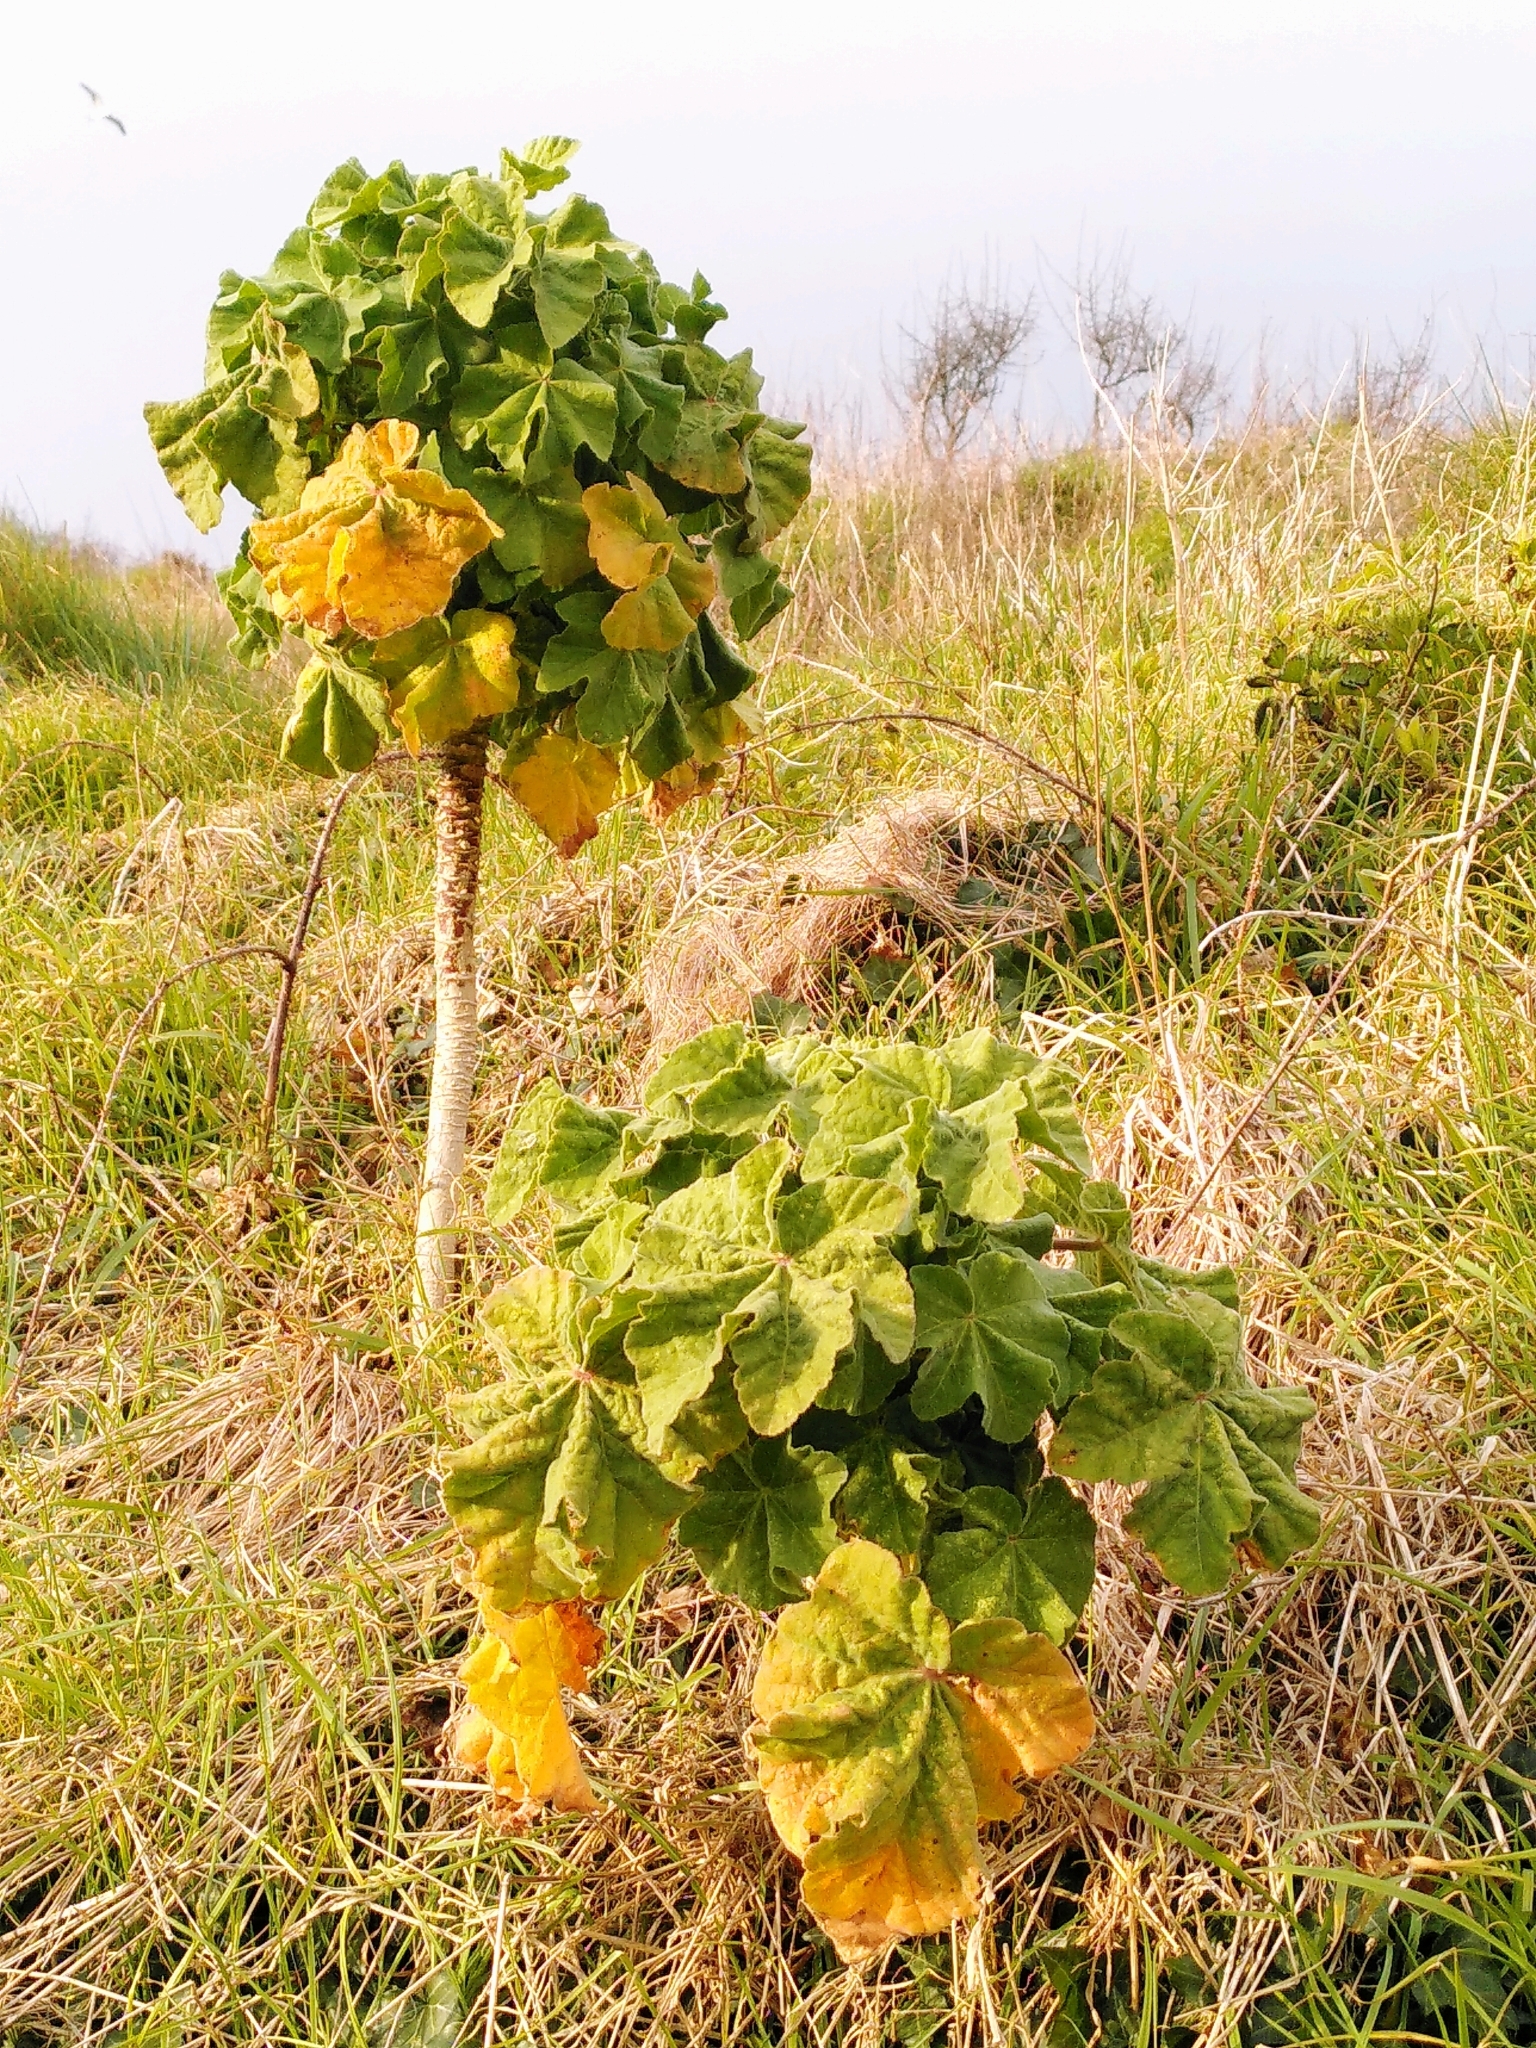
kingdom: Plantae
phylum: Tracheophyta
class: Magnoliopsida
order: Malvales
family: Malvaceae
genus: Malva
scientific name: Malva arborea
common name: Tree mallow
